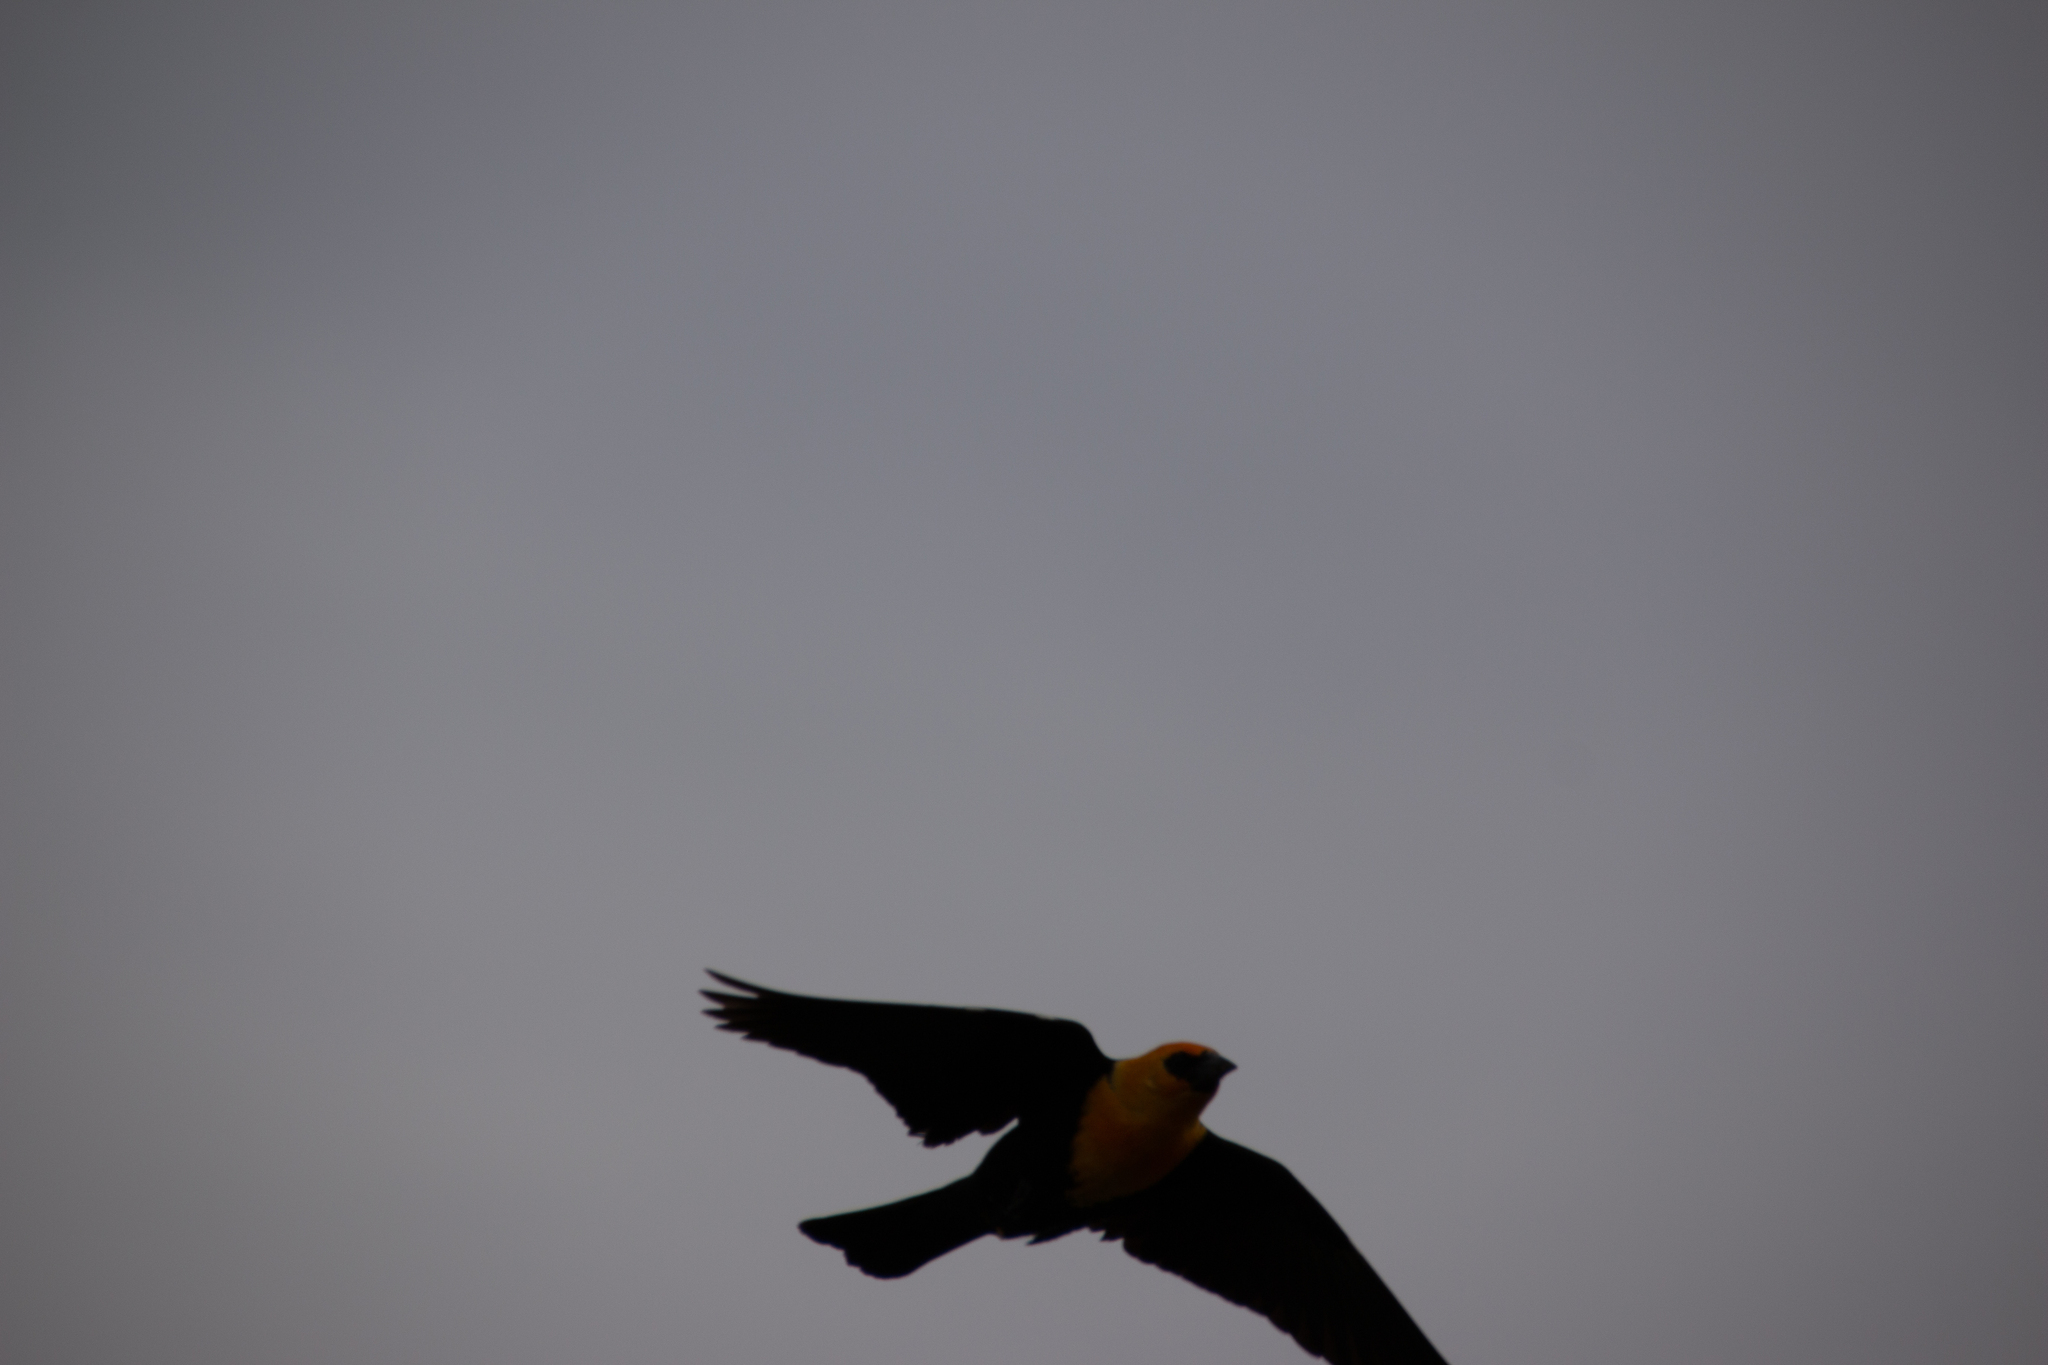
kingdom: Animalia
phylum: Chordata
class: Aves
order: Passeriformes
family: Icteridae
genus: Xanthocephalus
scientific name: Xanthocephalus xanthocephalus
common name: Yellow-headed blackbird
